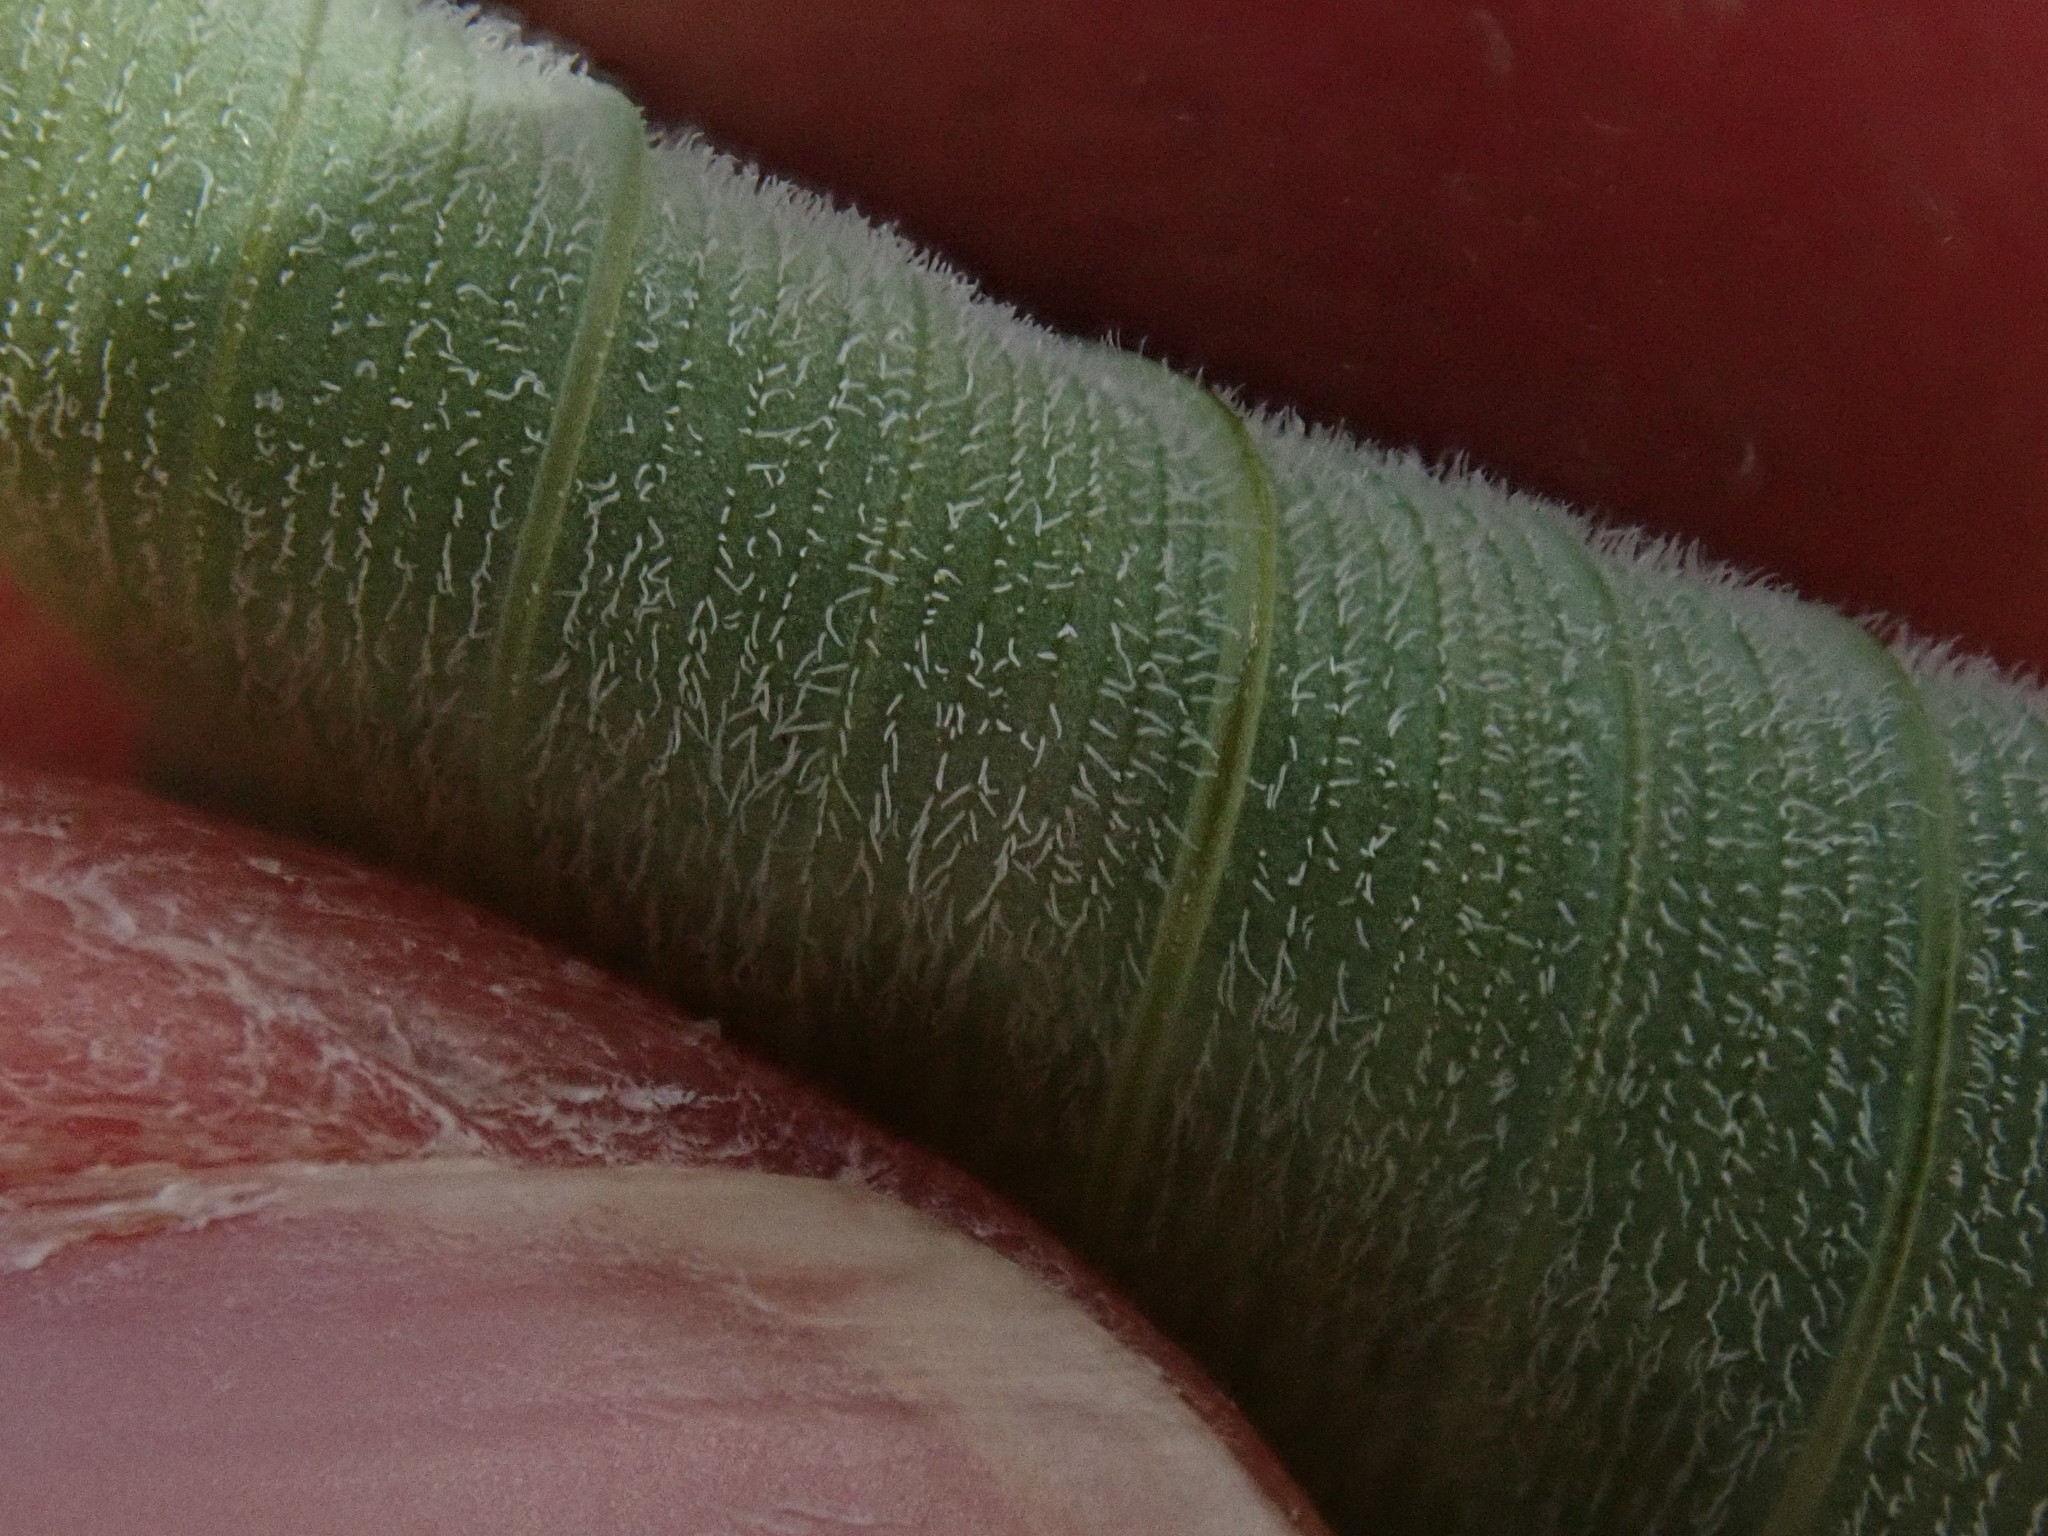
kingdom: Plantae
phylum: Tracheophyta
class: Liliopsida
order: Asparagales
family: Asparagaceae
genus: Polygonatum
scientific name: Polygonatum pubescens
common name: Downy solomon's seal
